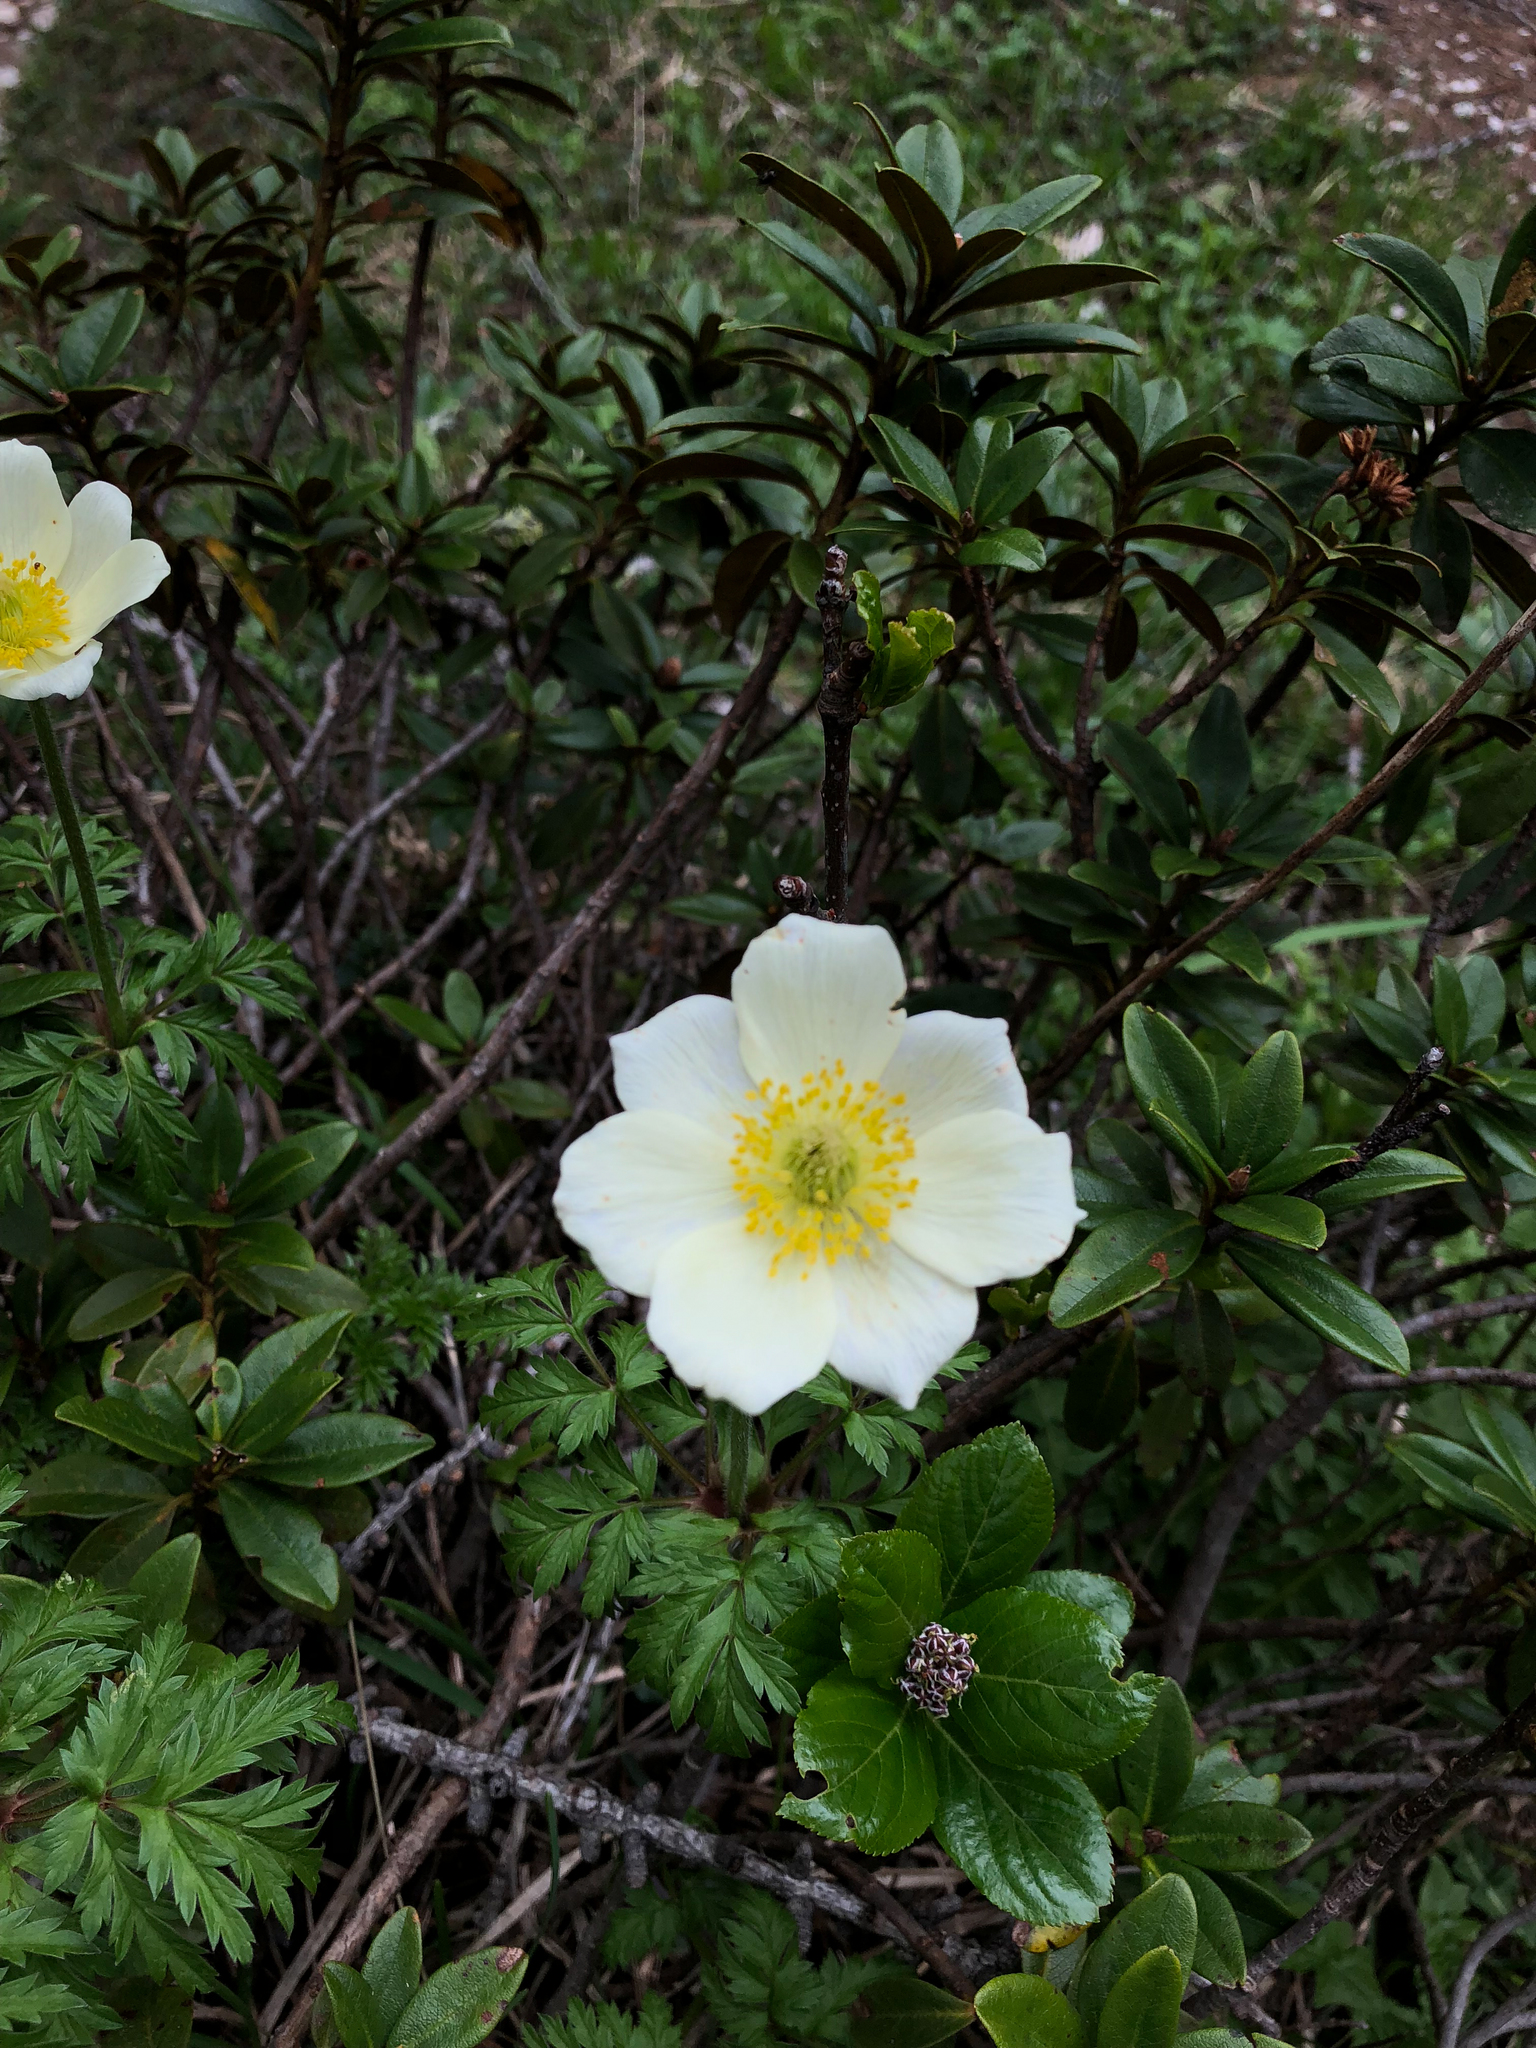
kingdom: Plantae
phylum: Tracheophyta
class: Magnoliopsida
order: Ranunculales
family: Ranunculaceae
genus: Anemonastrum
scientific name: Anemonastrum narcissiflorum
